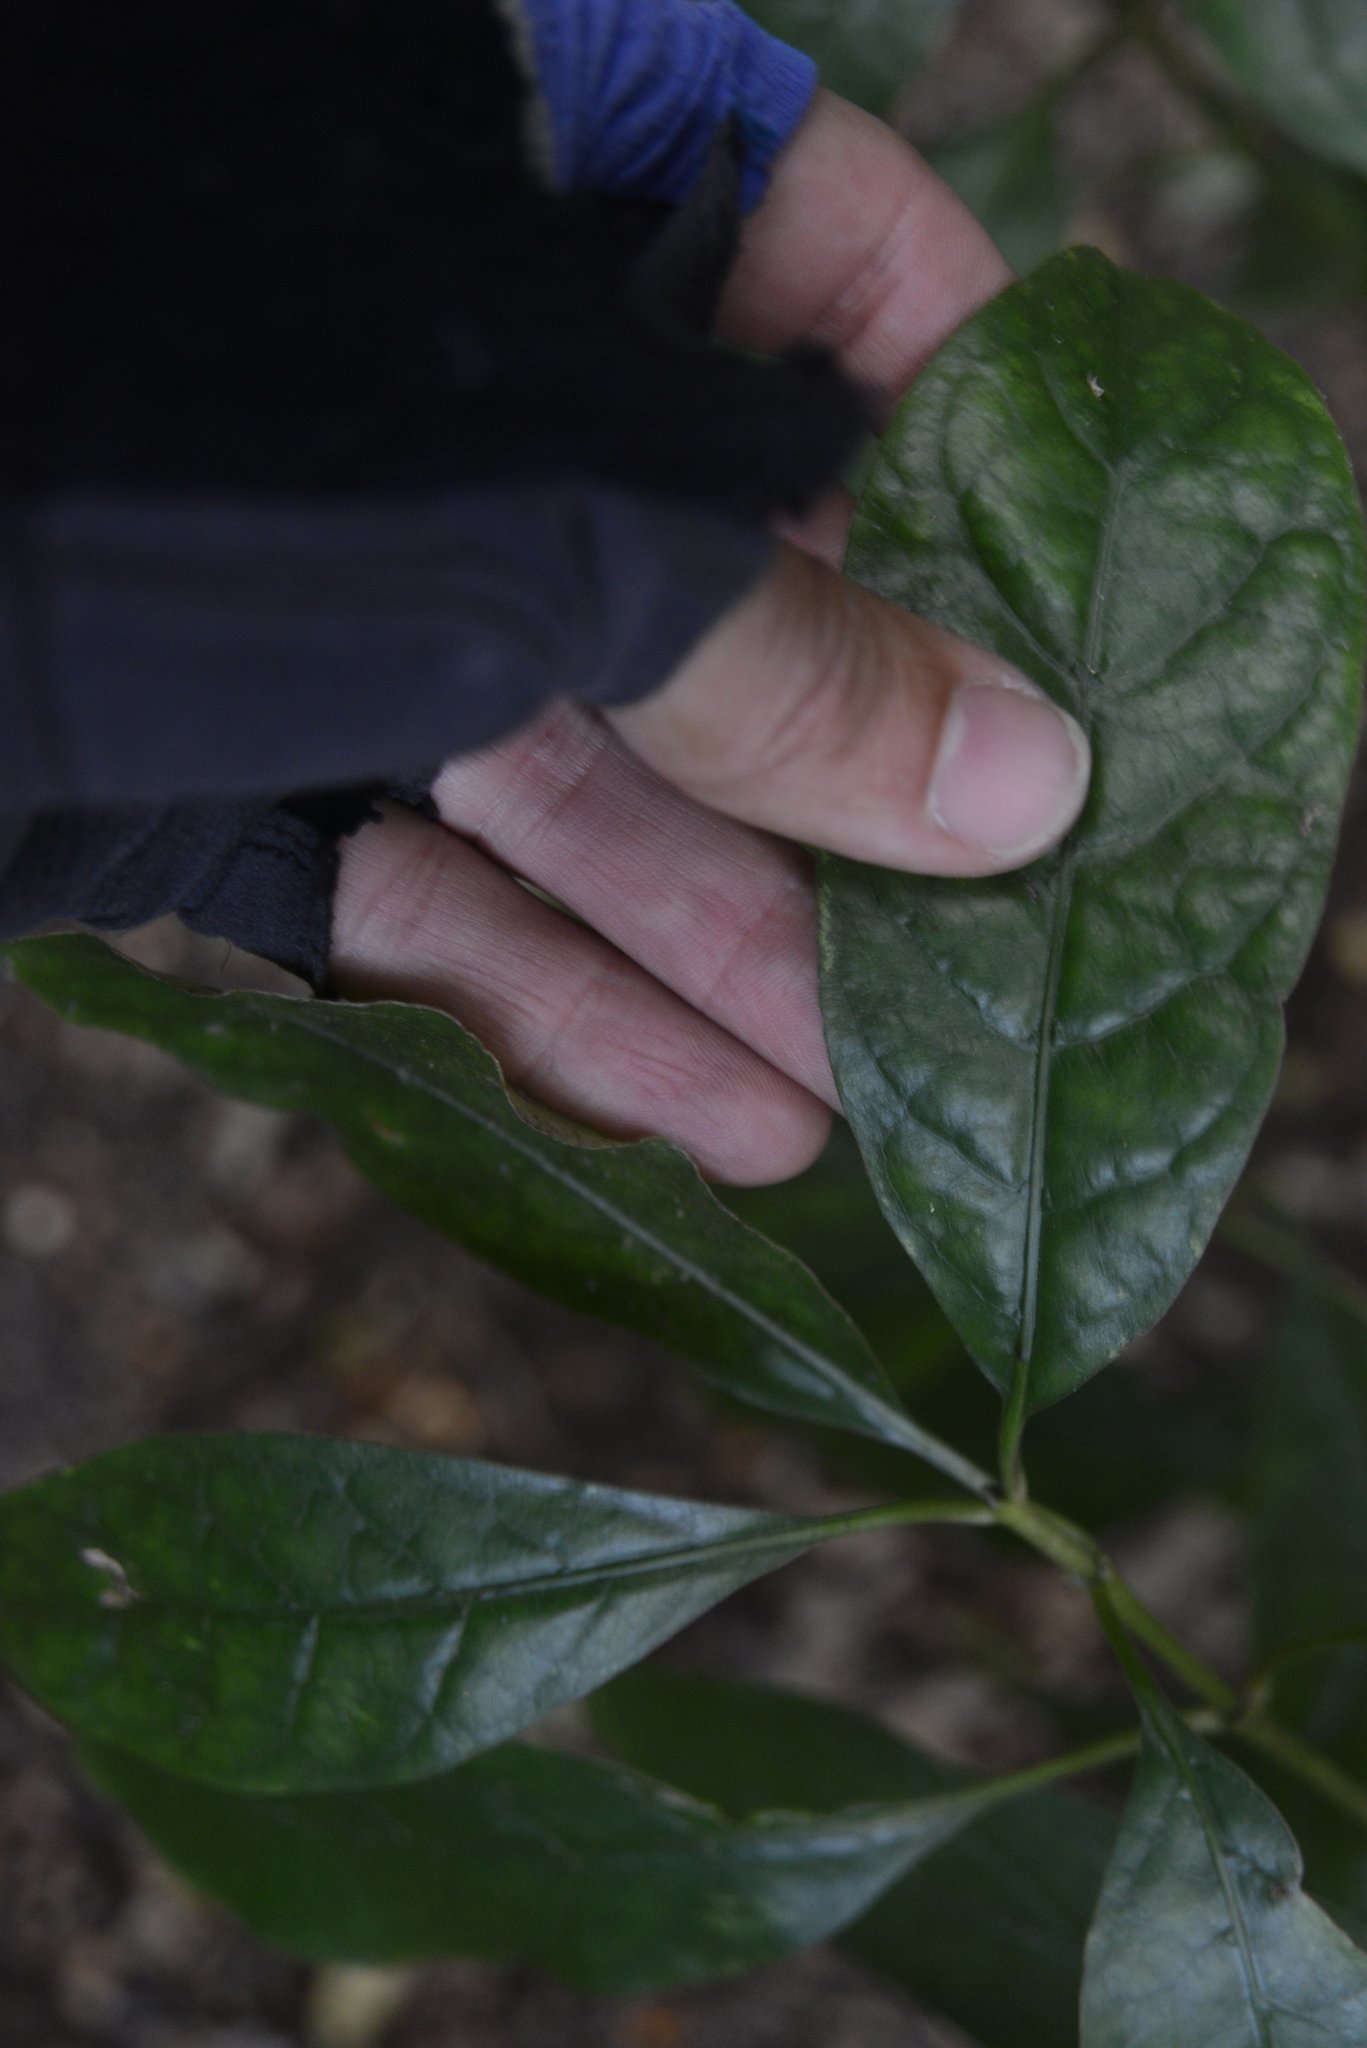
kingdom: Plantae
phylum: Tracheophyta
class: Magnoliopsida
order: Gentianales
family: Rubiaceae
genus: Coprosma
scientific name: Coprosma autumnalis
